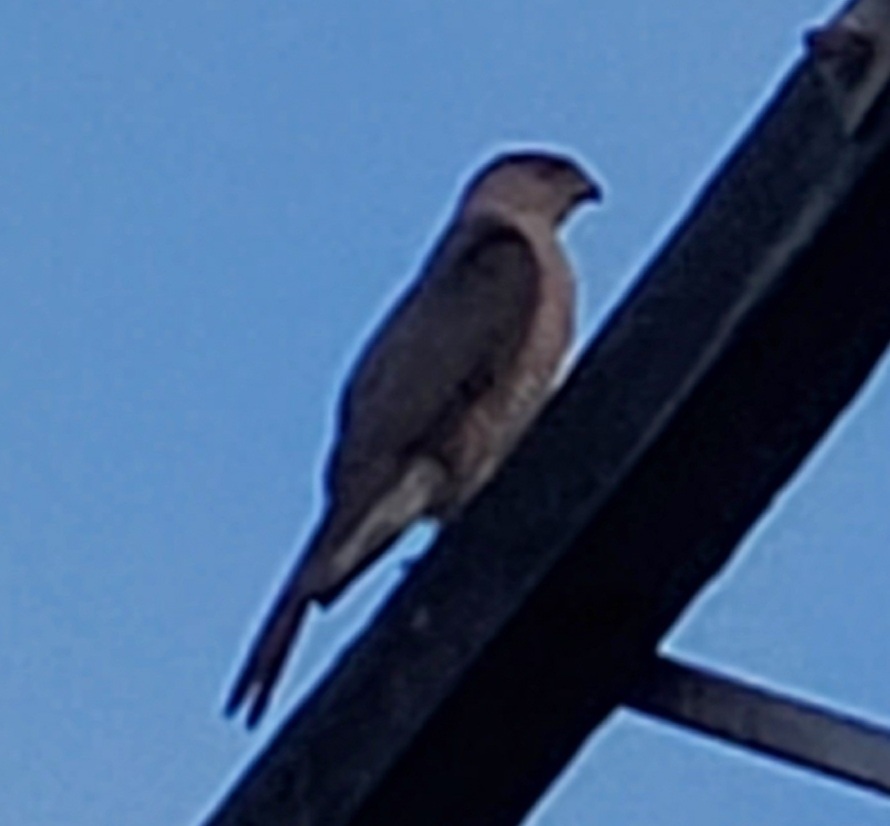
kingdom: Animalia
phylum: Chordata
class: Aves
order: Accipitriformes
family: Accipitridae
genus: Accipiter
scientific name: Accipiter cooperii
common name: Cooper's hawk
